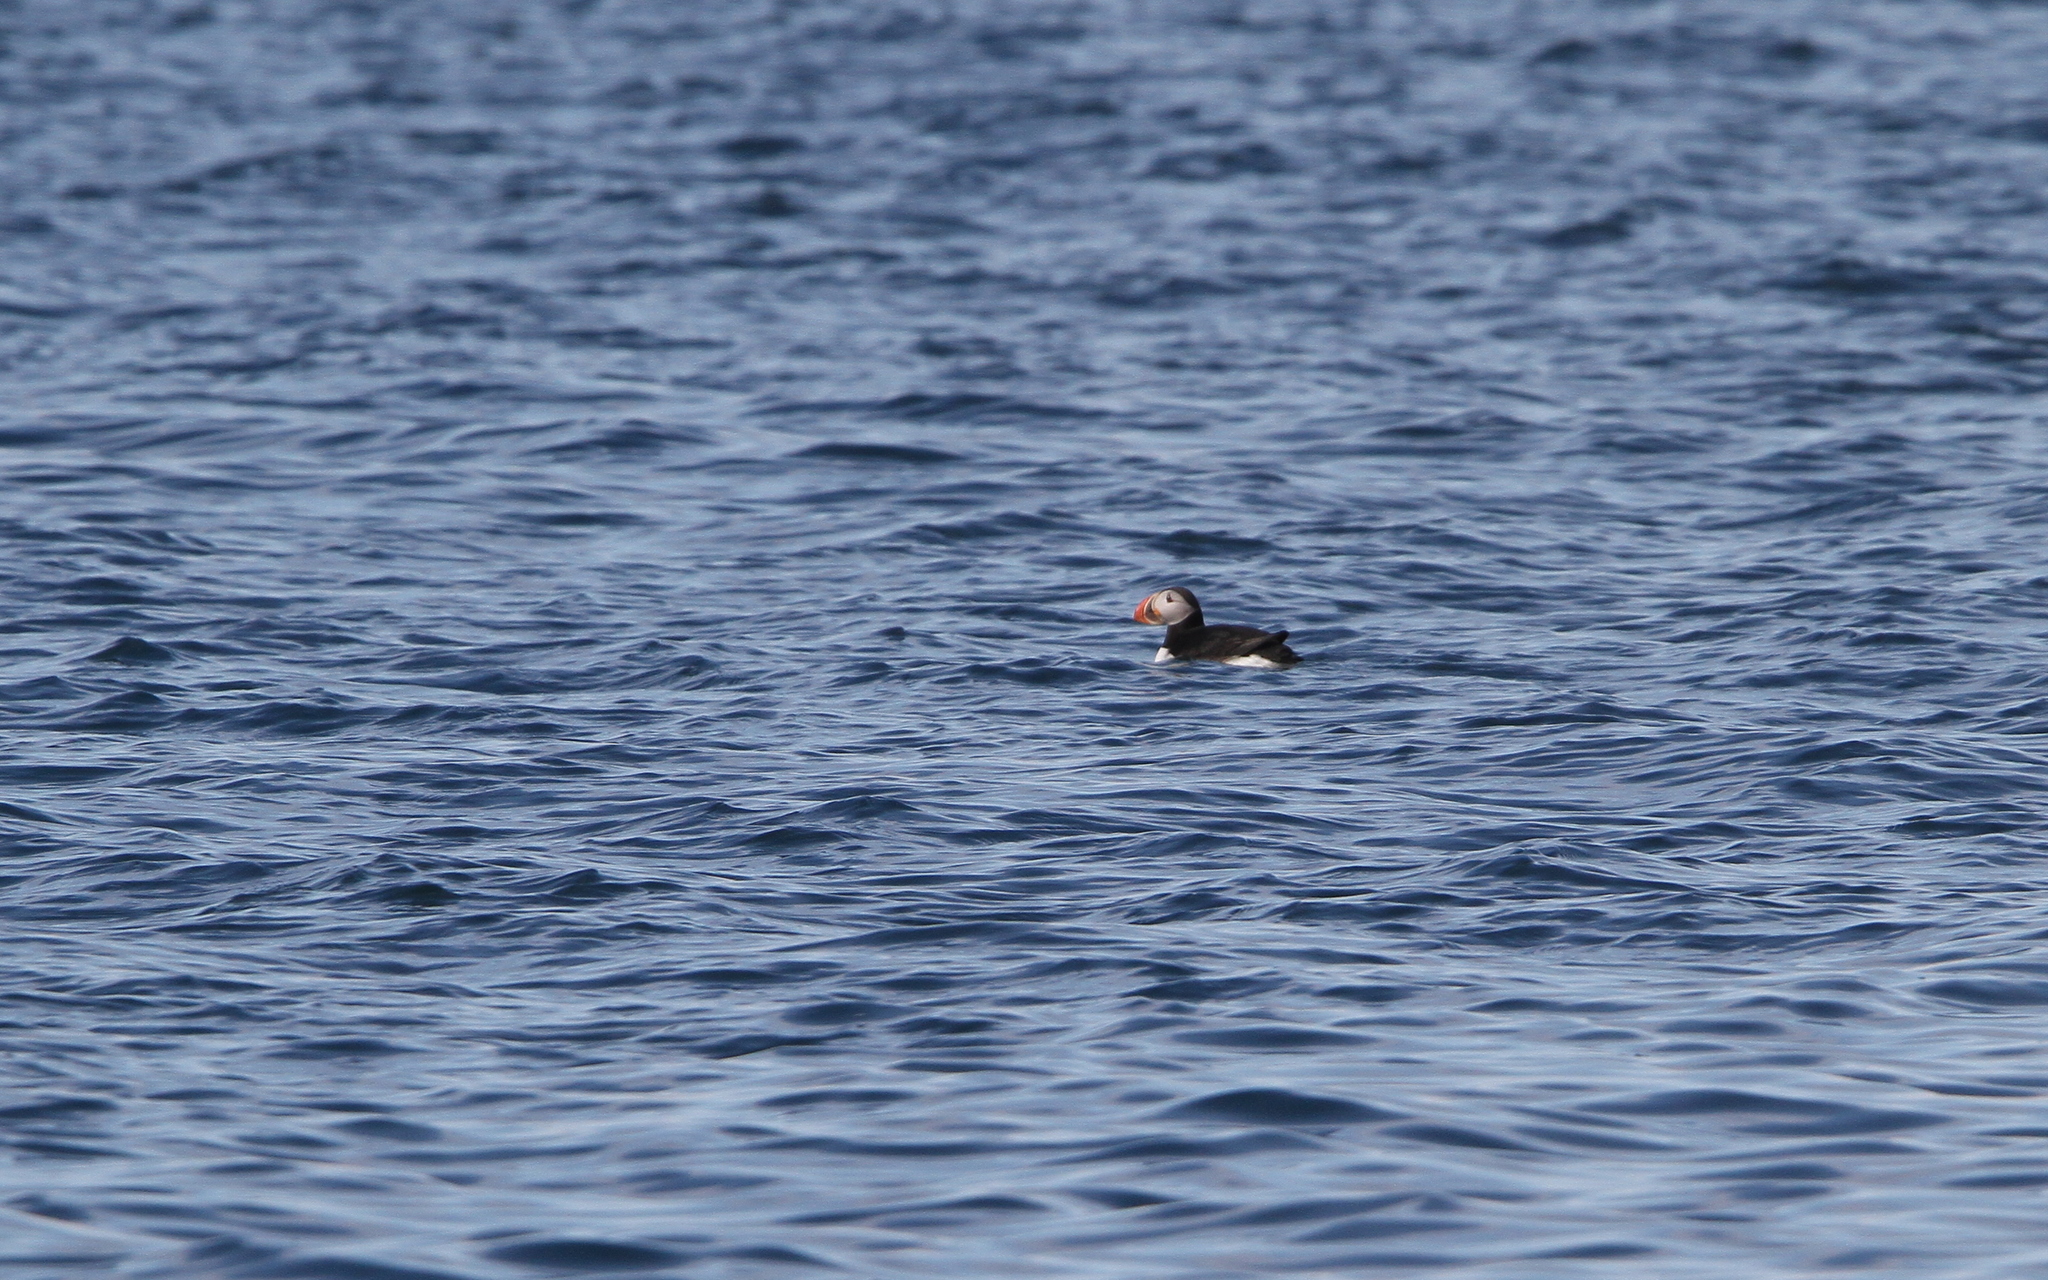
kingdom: Animalia
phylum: Chordata
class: Aves
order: Charadriiformes
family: Alcidae
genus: Fratercula
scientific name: Fratercula arctica
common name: Atlantic puffin
